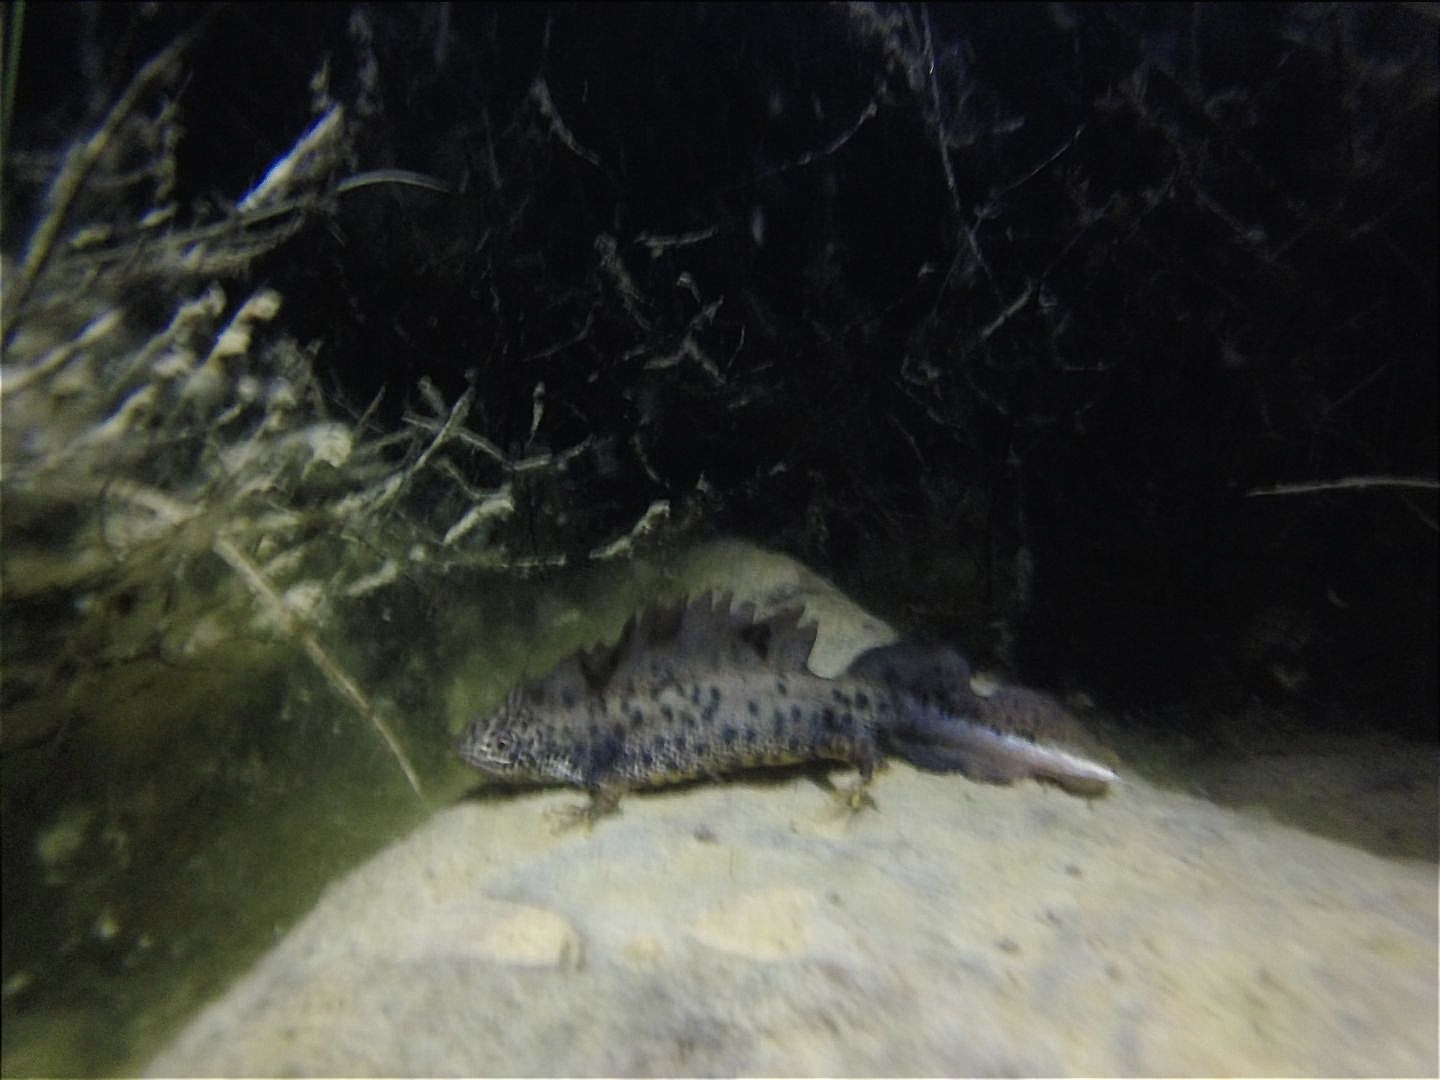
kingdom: Animalia
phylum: Chordata
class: Amphibia
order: Caudata
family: Salamandridae
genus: Triturus
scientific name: Triturus cristatus
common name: Crested newt
